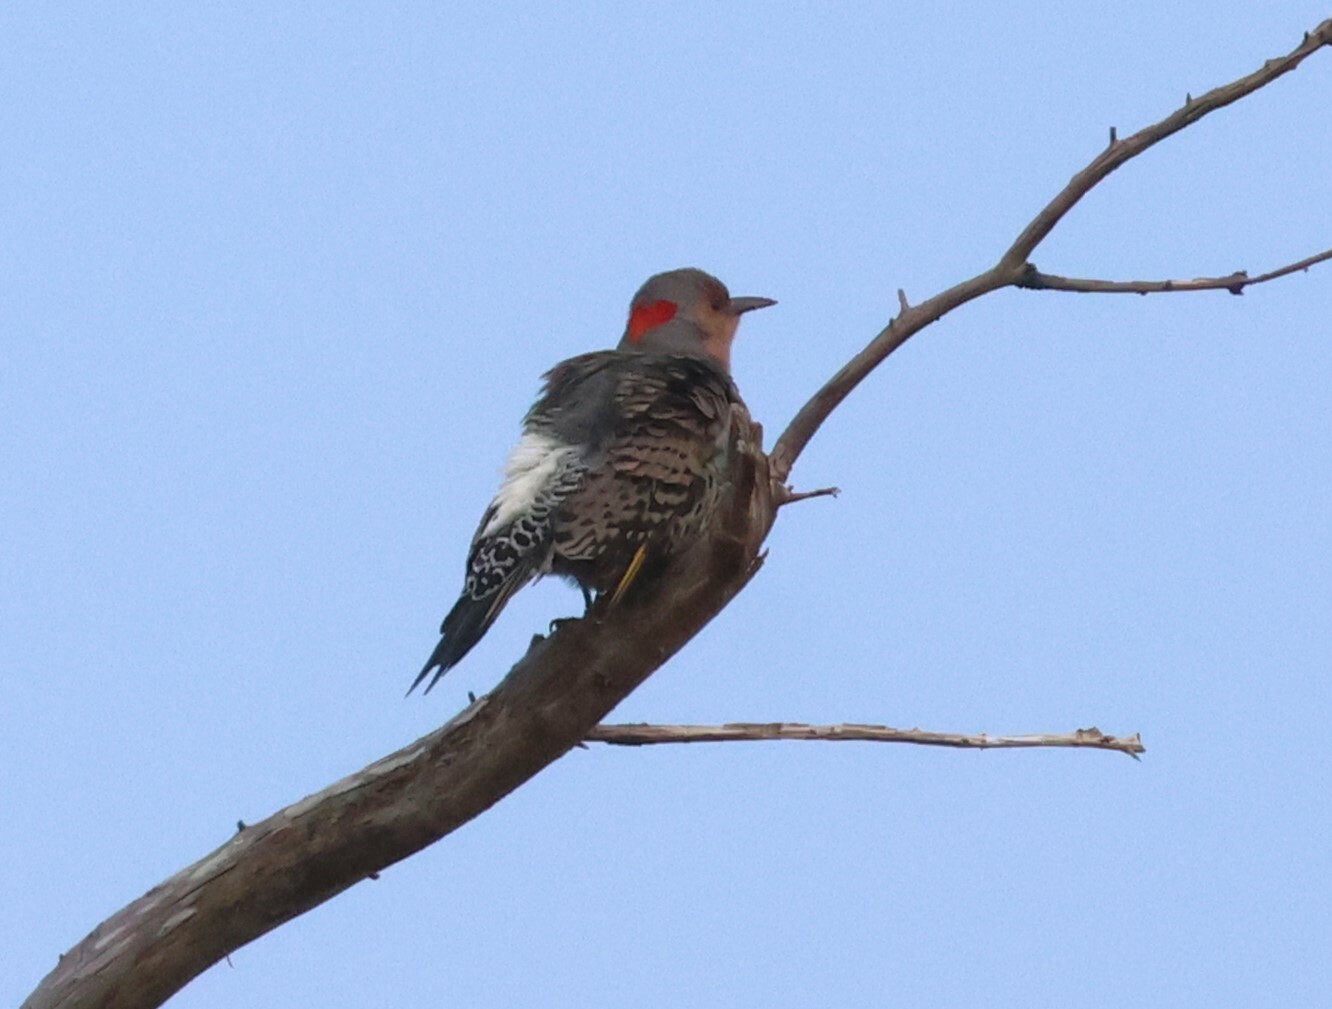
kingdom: Animalia
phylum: Chordata
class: Aves
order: Piciformes
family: Picidae
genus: Colaptes
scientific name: Colaptes auratus
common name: Northern flicker
